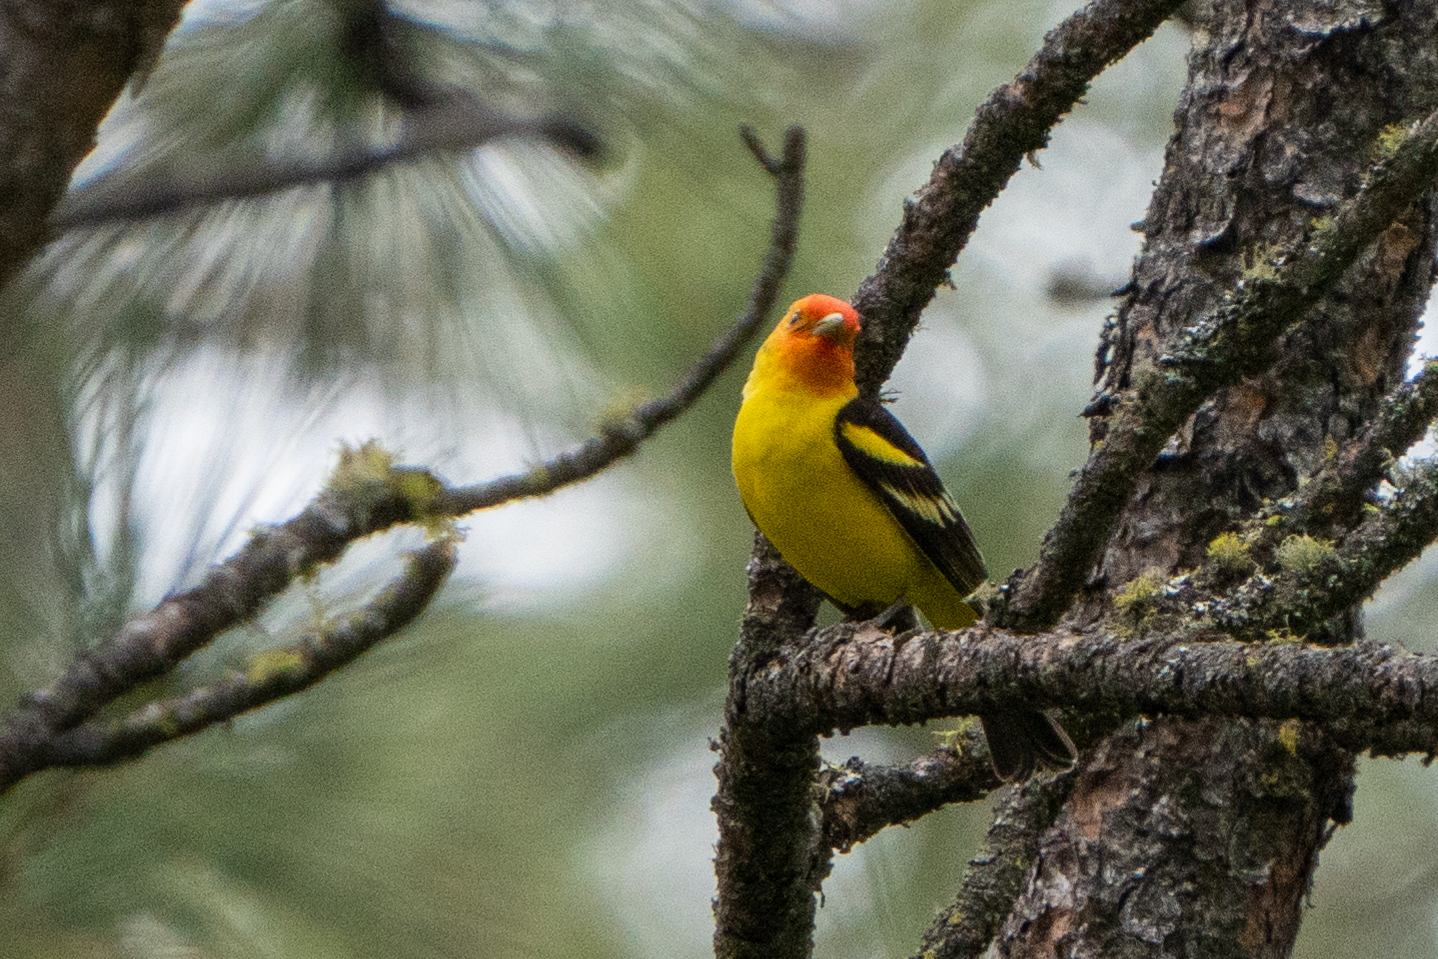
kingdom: Animalia
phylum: Chordata
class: Aves
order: Passeriformes
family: Cardinalidae
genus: Piranga
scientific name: Piranga ludoviciana
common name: Western tanager
